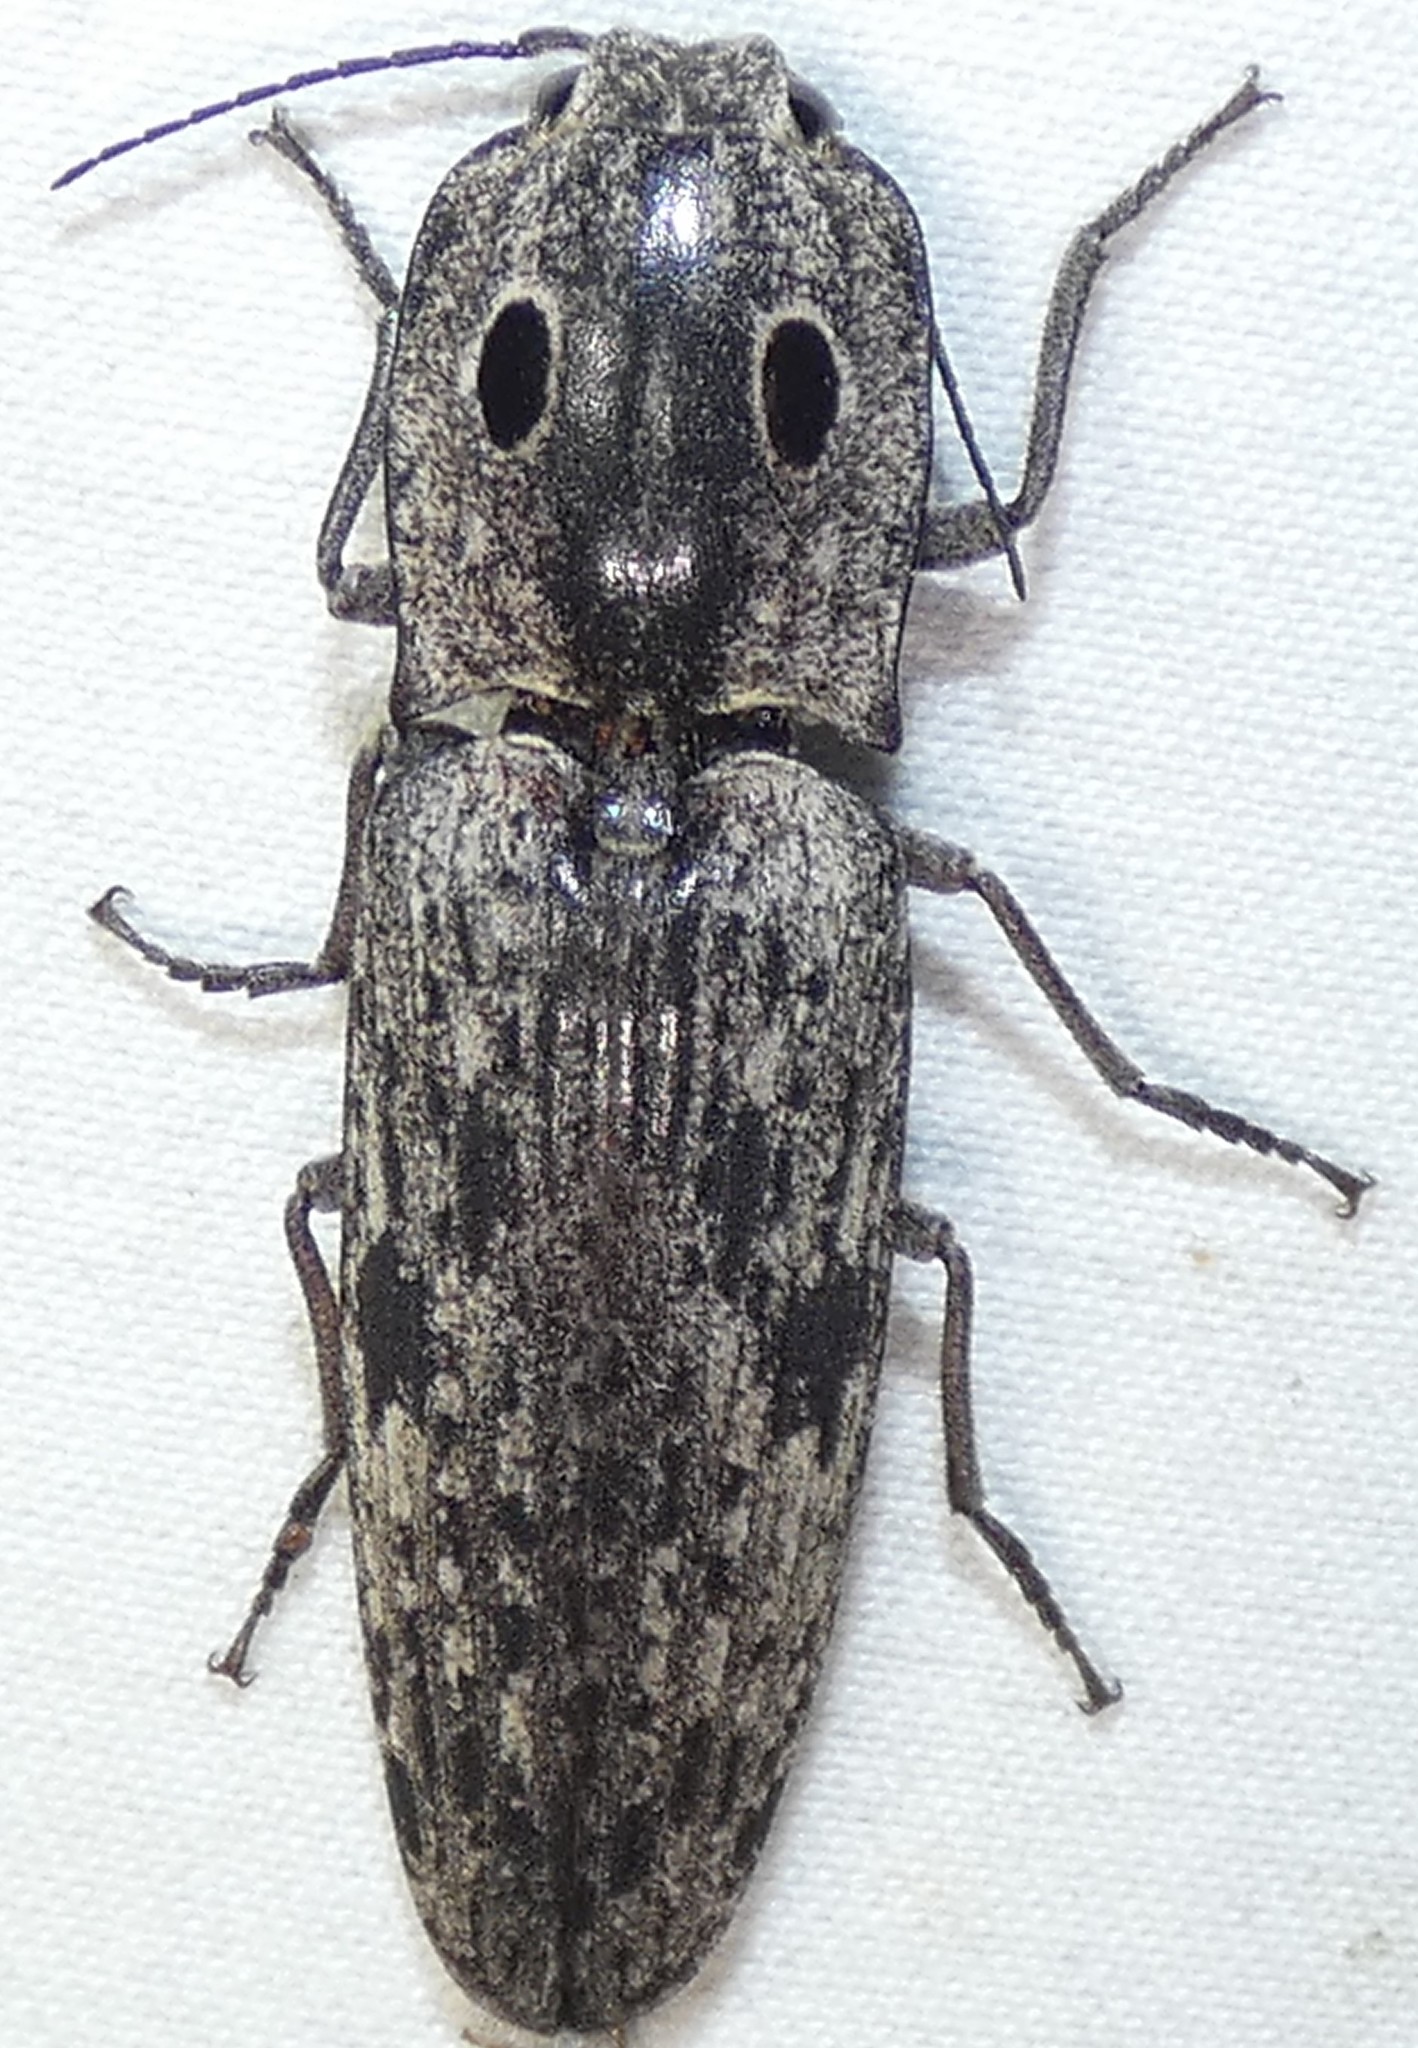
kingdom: Animalia
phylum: Arthropoda
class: Insecta
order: Coleoptera
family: Elateridae
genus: Alaus
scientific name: Alaus myops
